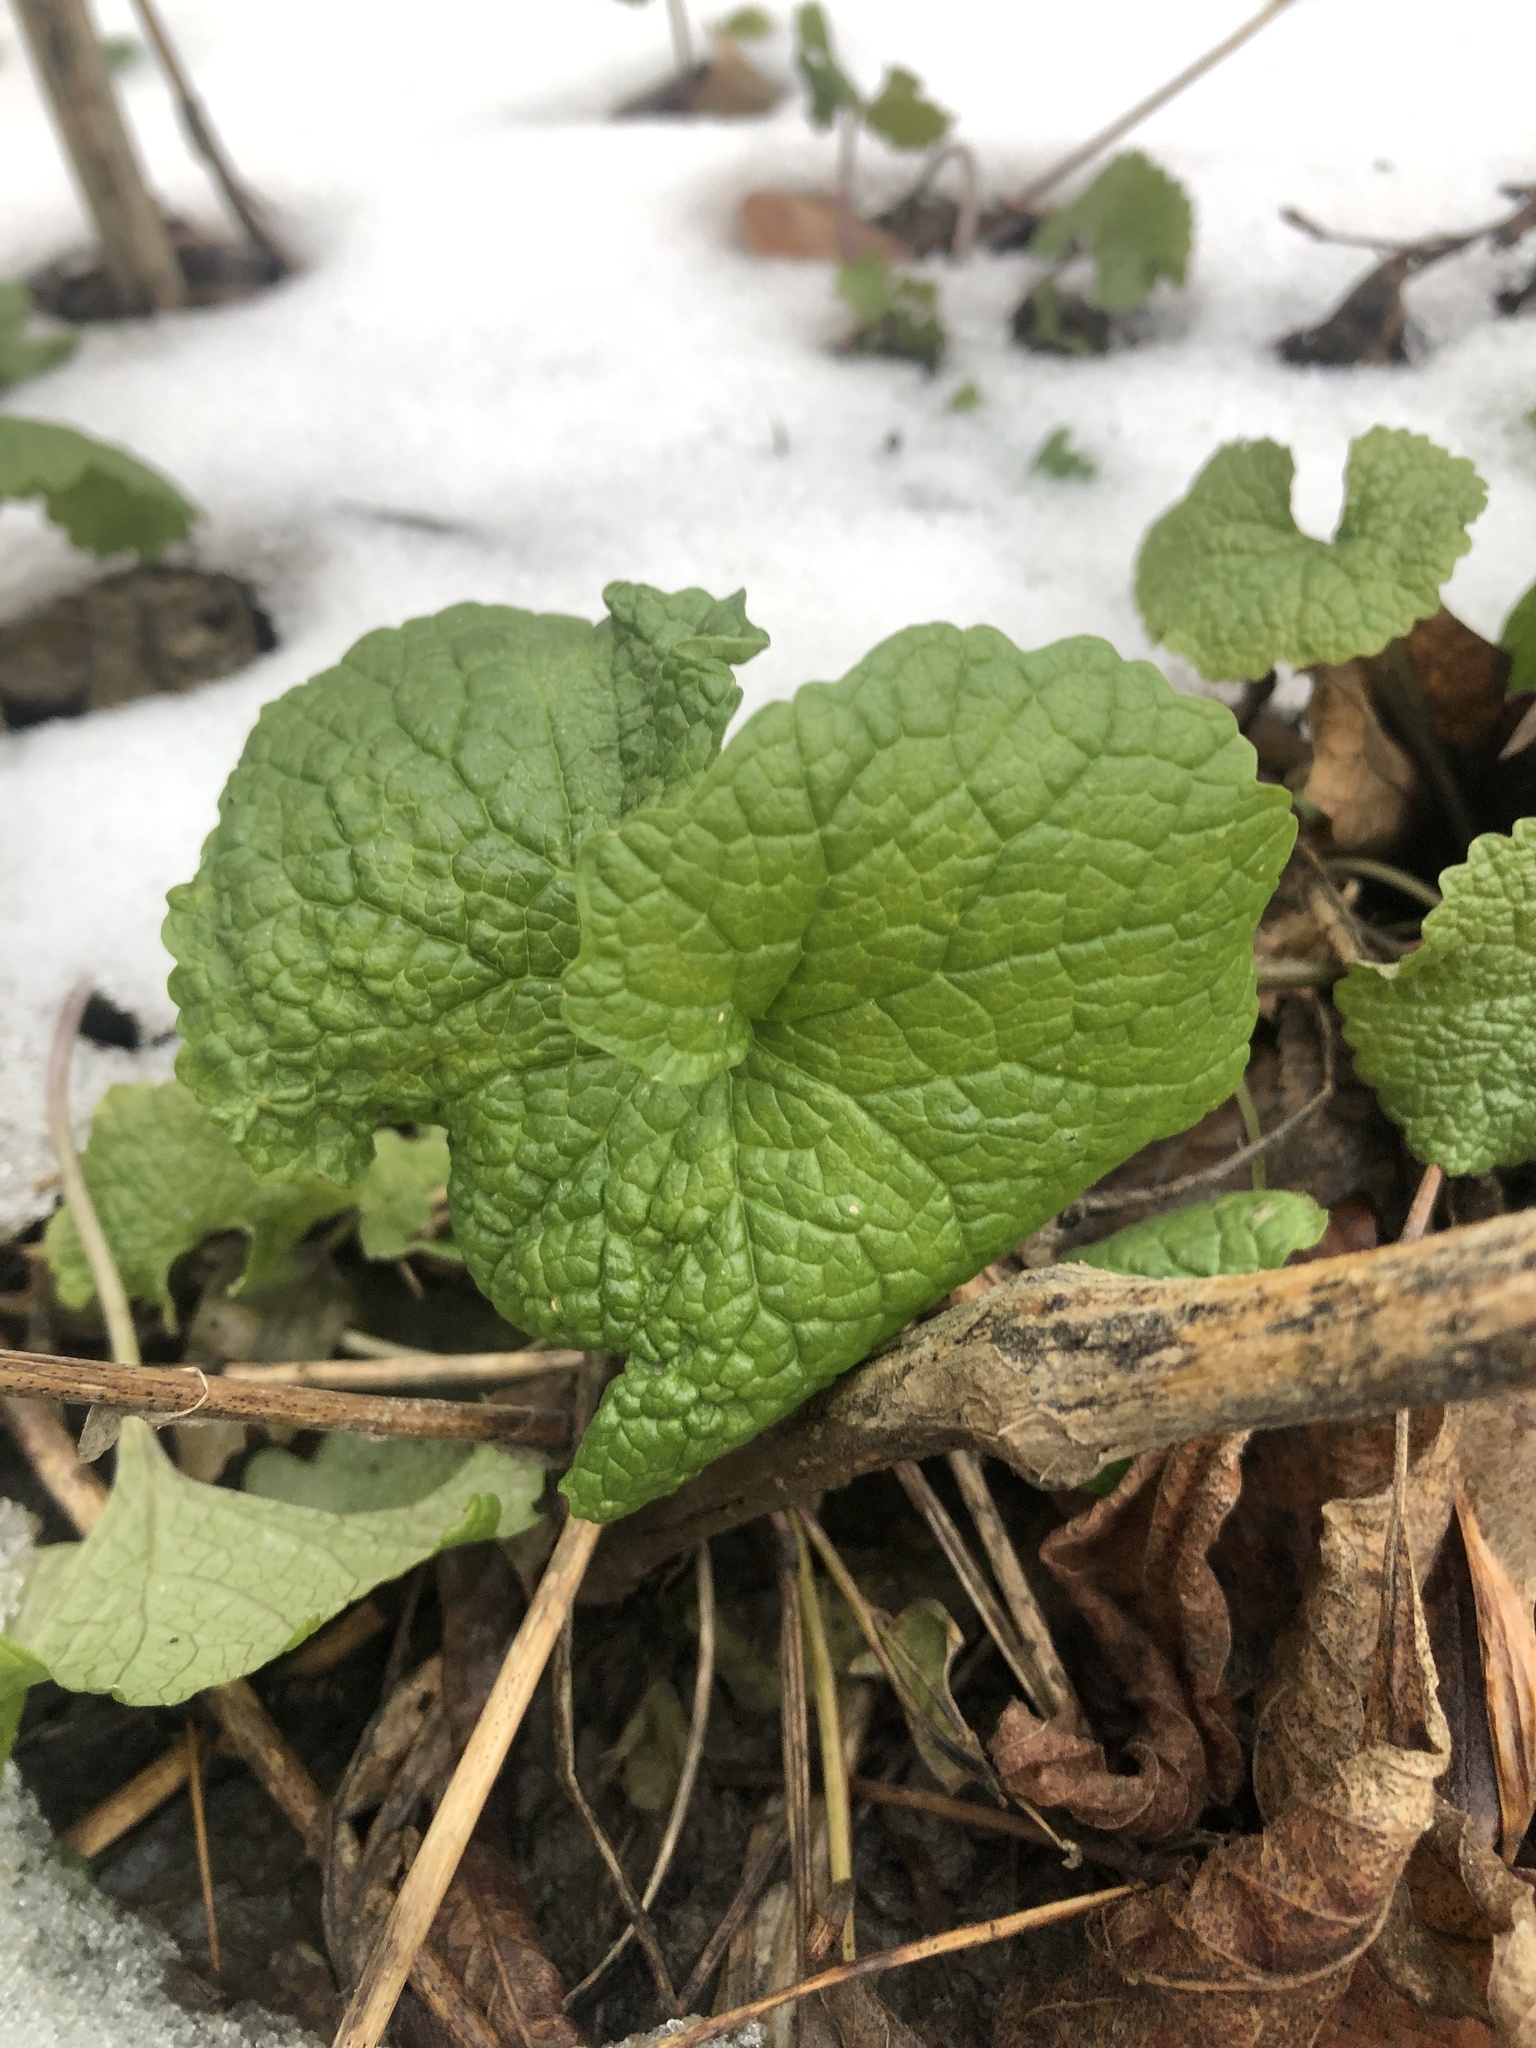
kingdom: Plantae
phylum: Tracheophyta
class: Magnoliopsida
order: Brassicales
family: Brassicaceae
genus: Alliaria
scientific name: Alliaria petiolata
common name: Garlic mustard
